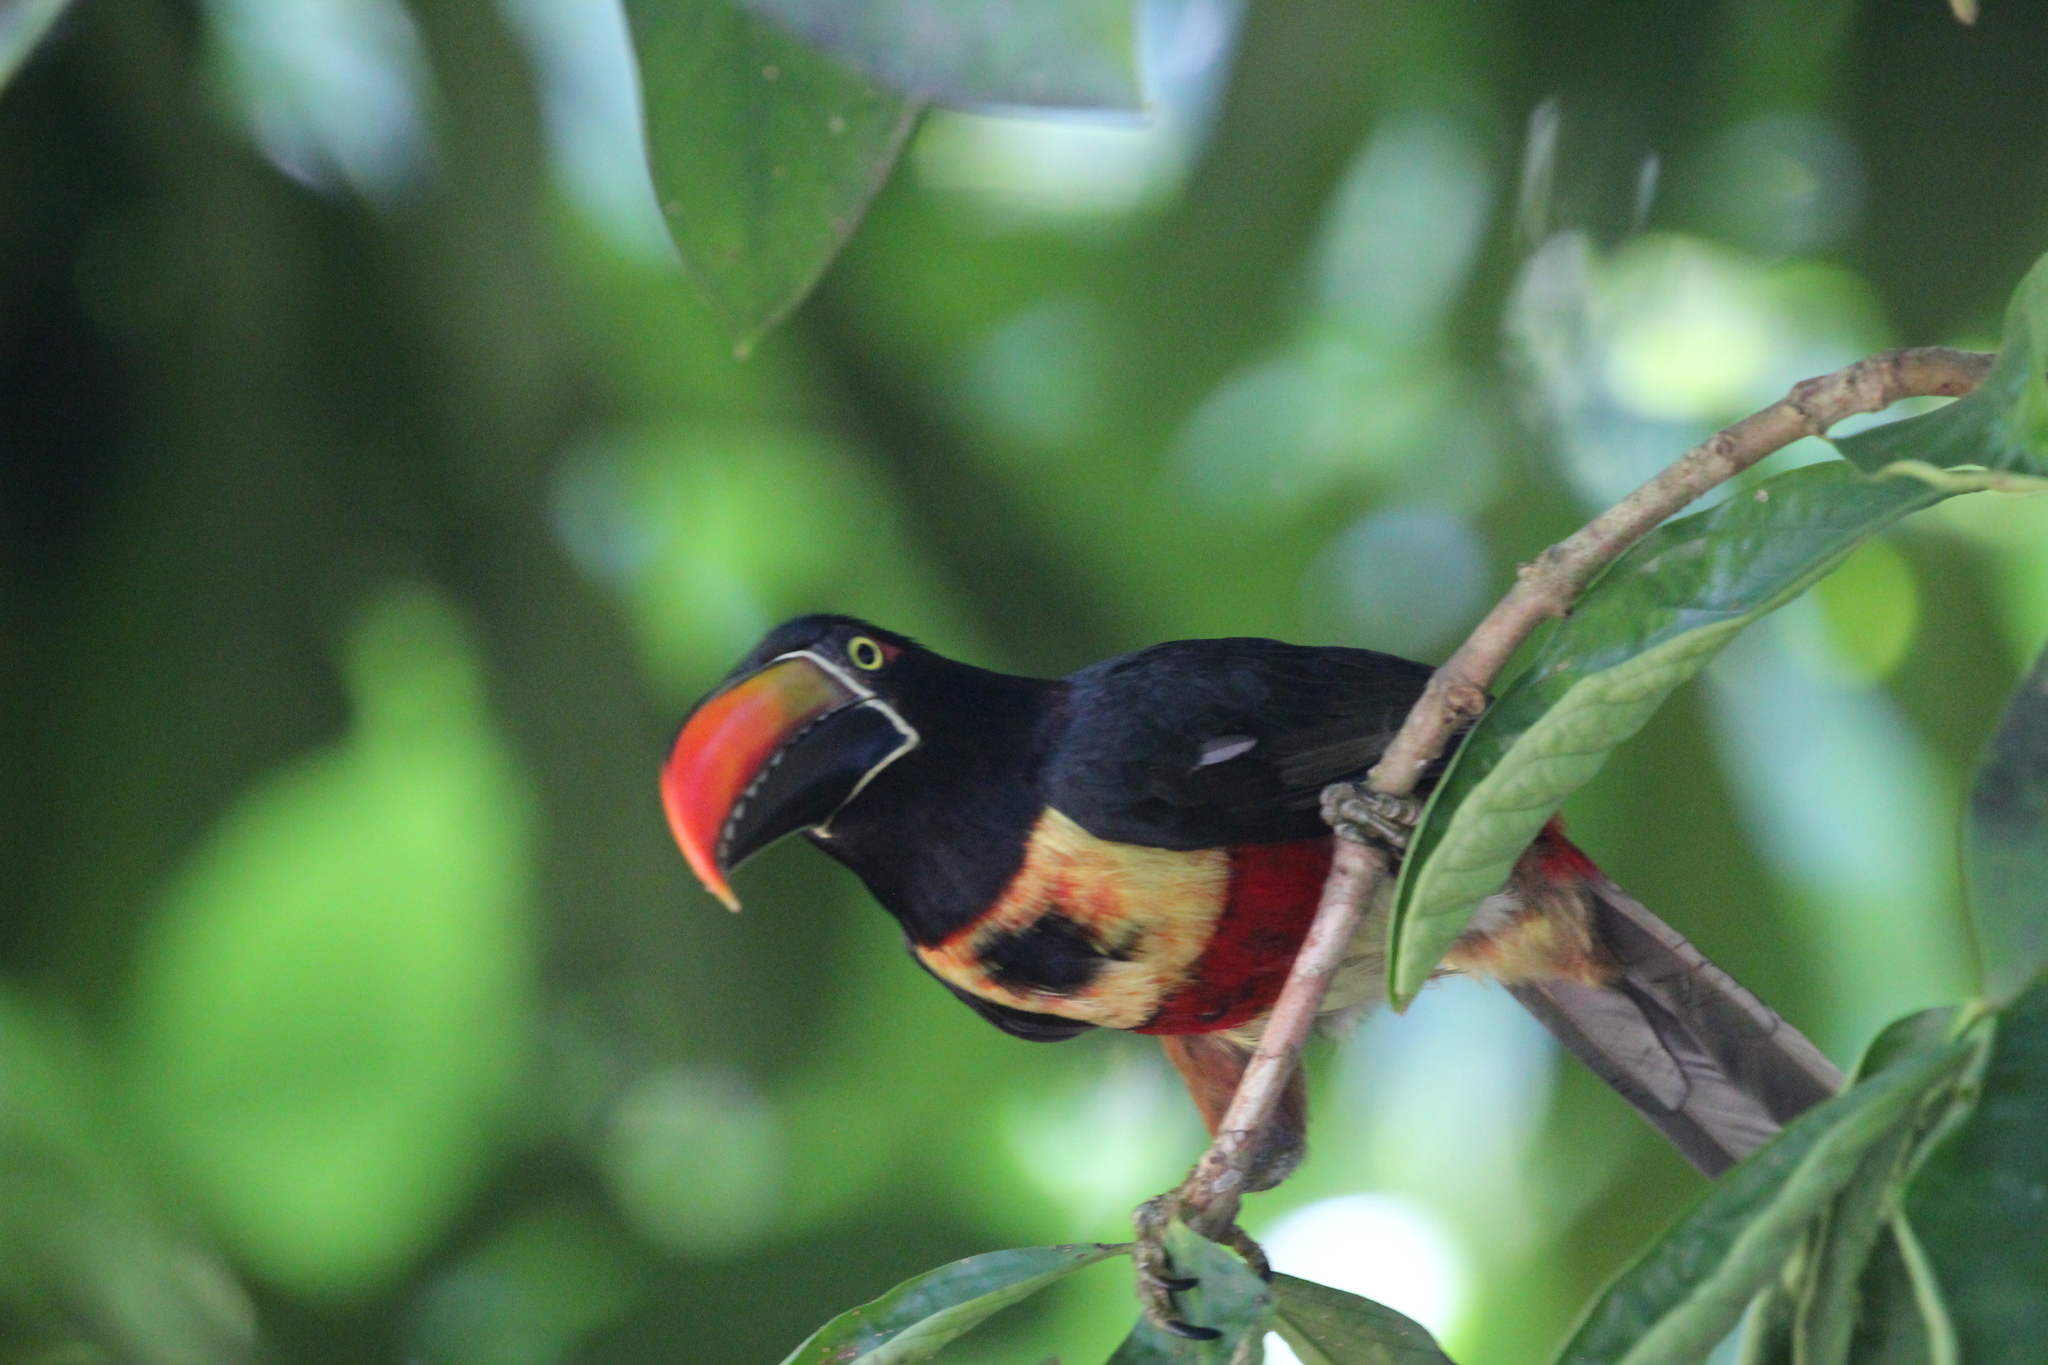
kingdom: Animalia
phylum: Chordata
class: Aves
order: Piciformes
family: Ramphastidae
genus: Pteroglossus
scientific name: Pteroglossus frantzii
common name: Fiery-billed aracari
